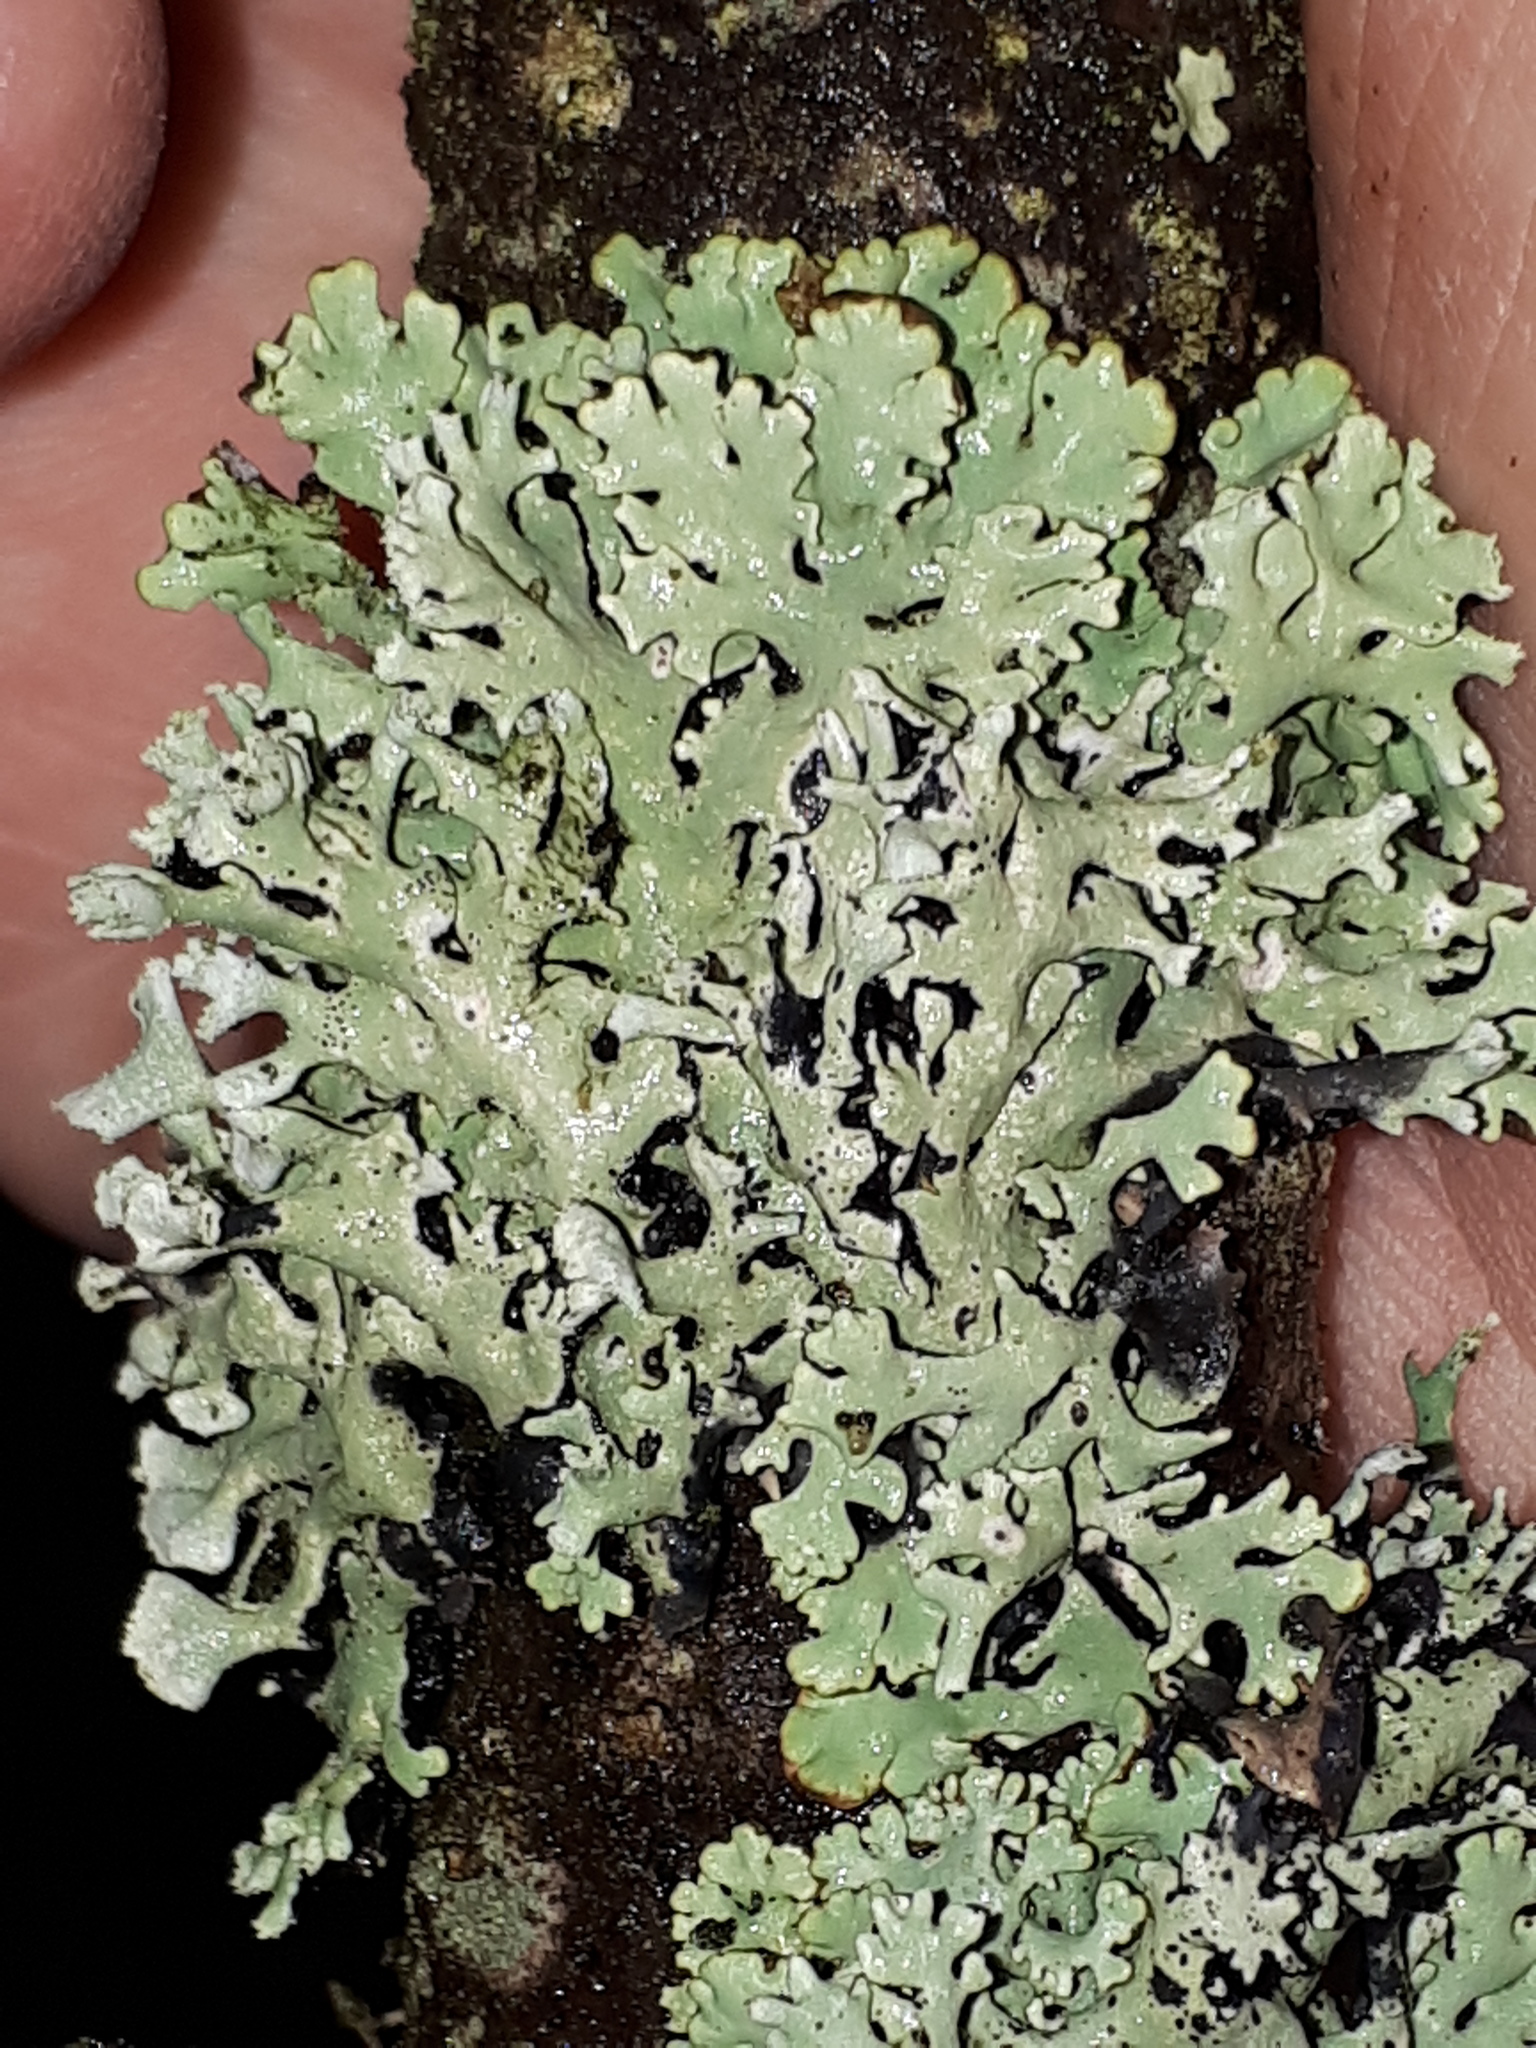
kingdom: Fungi
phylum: Ascomycota
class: Lecanoromycetes
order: Lecanorales
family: Parmeliaceae
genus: Hypogymnia
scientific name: Hypogymnia physodes
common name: Dark crottle
